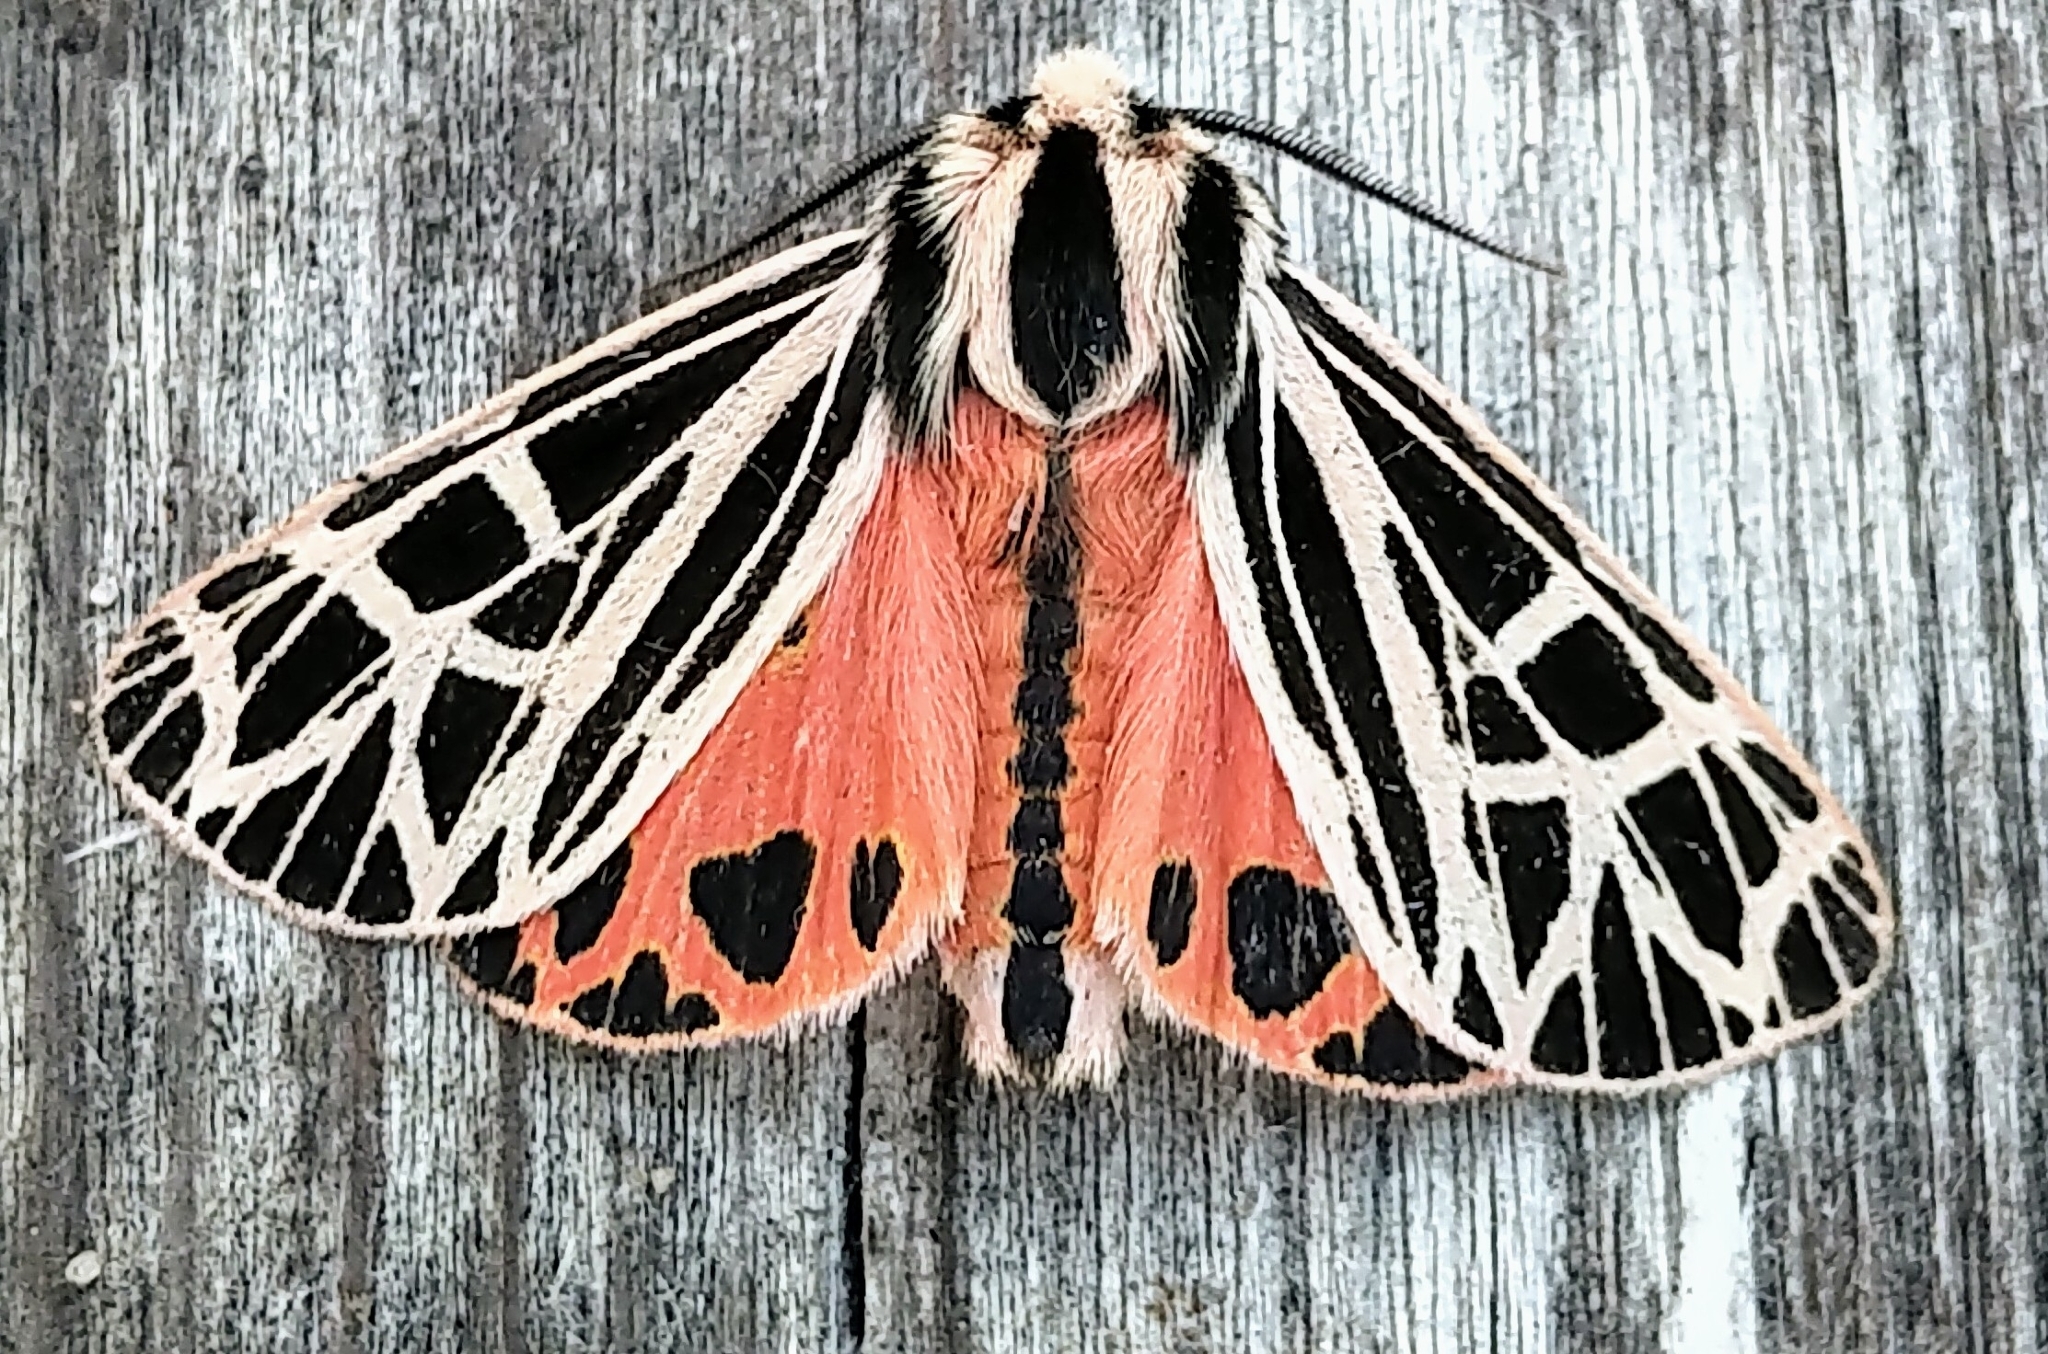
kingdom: Animalia
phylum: Arthropoda
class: Insecta
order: Lepidoptera
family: Erebidae
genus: Grammia
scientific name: Grammia parthenice
